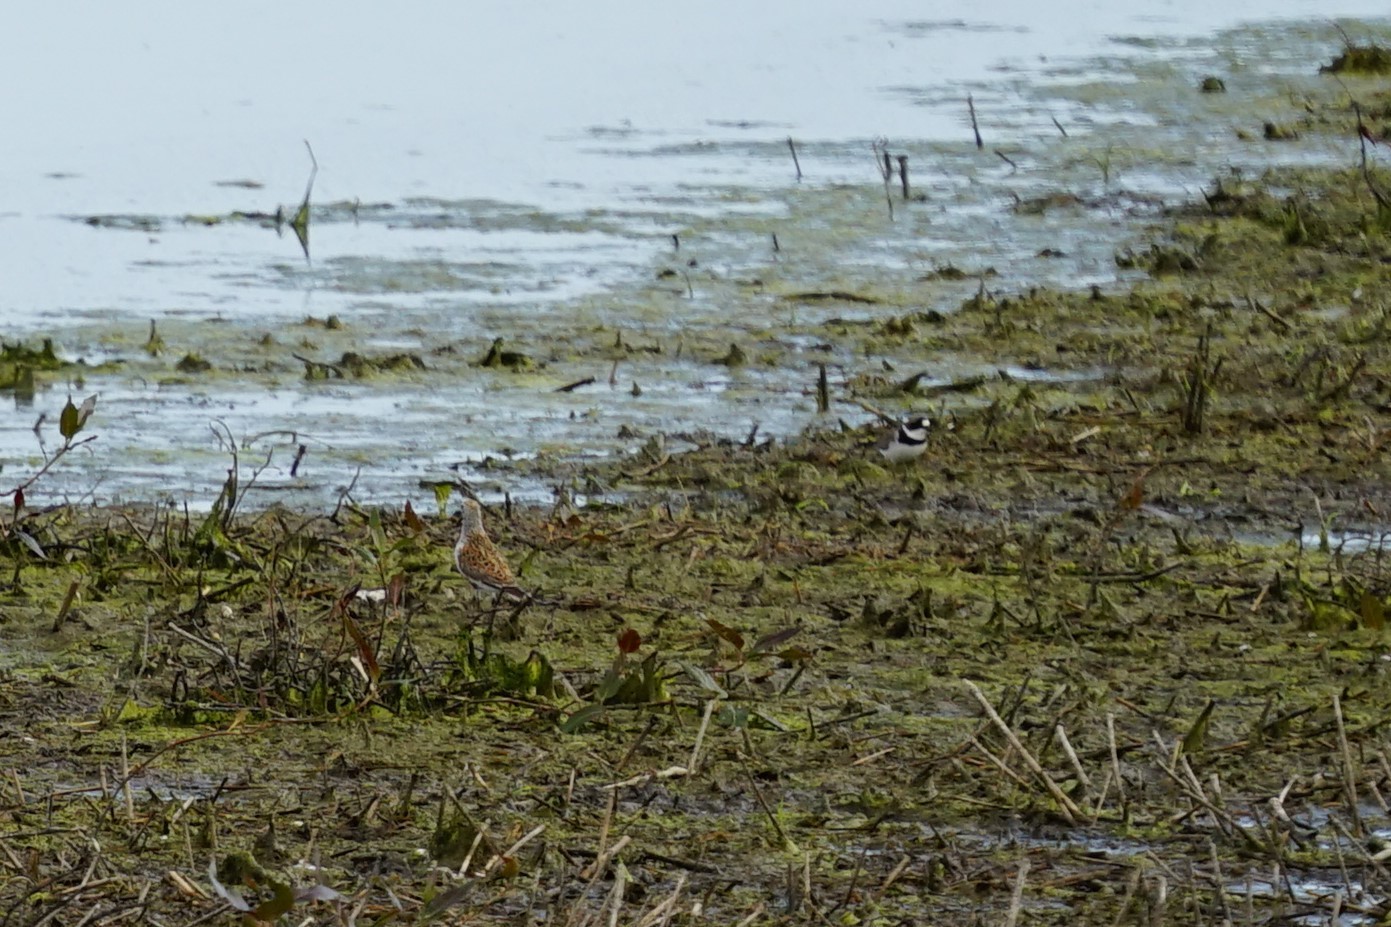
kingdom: Animalia
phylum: Chordata
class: Aves
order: Charadriiformes
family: Scolopacidae
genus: Calidris
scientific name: Calidris alpina
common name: Dunlin
